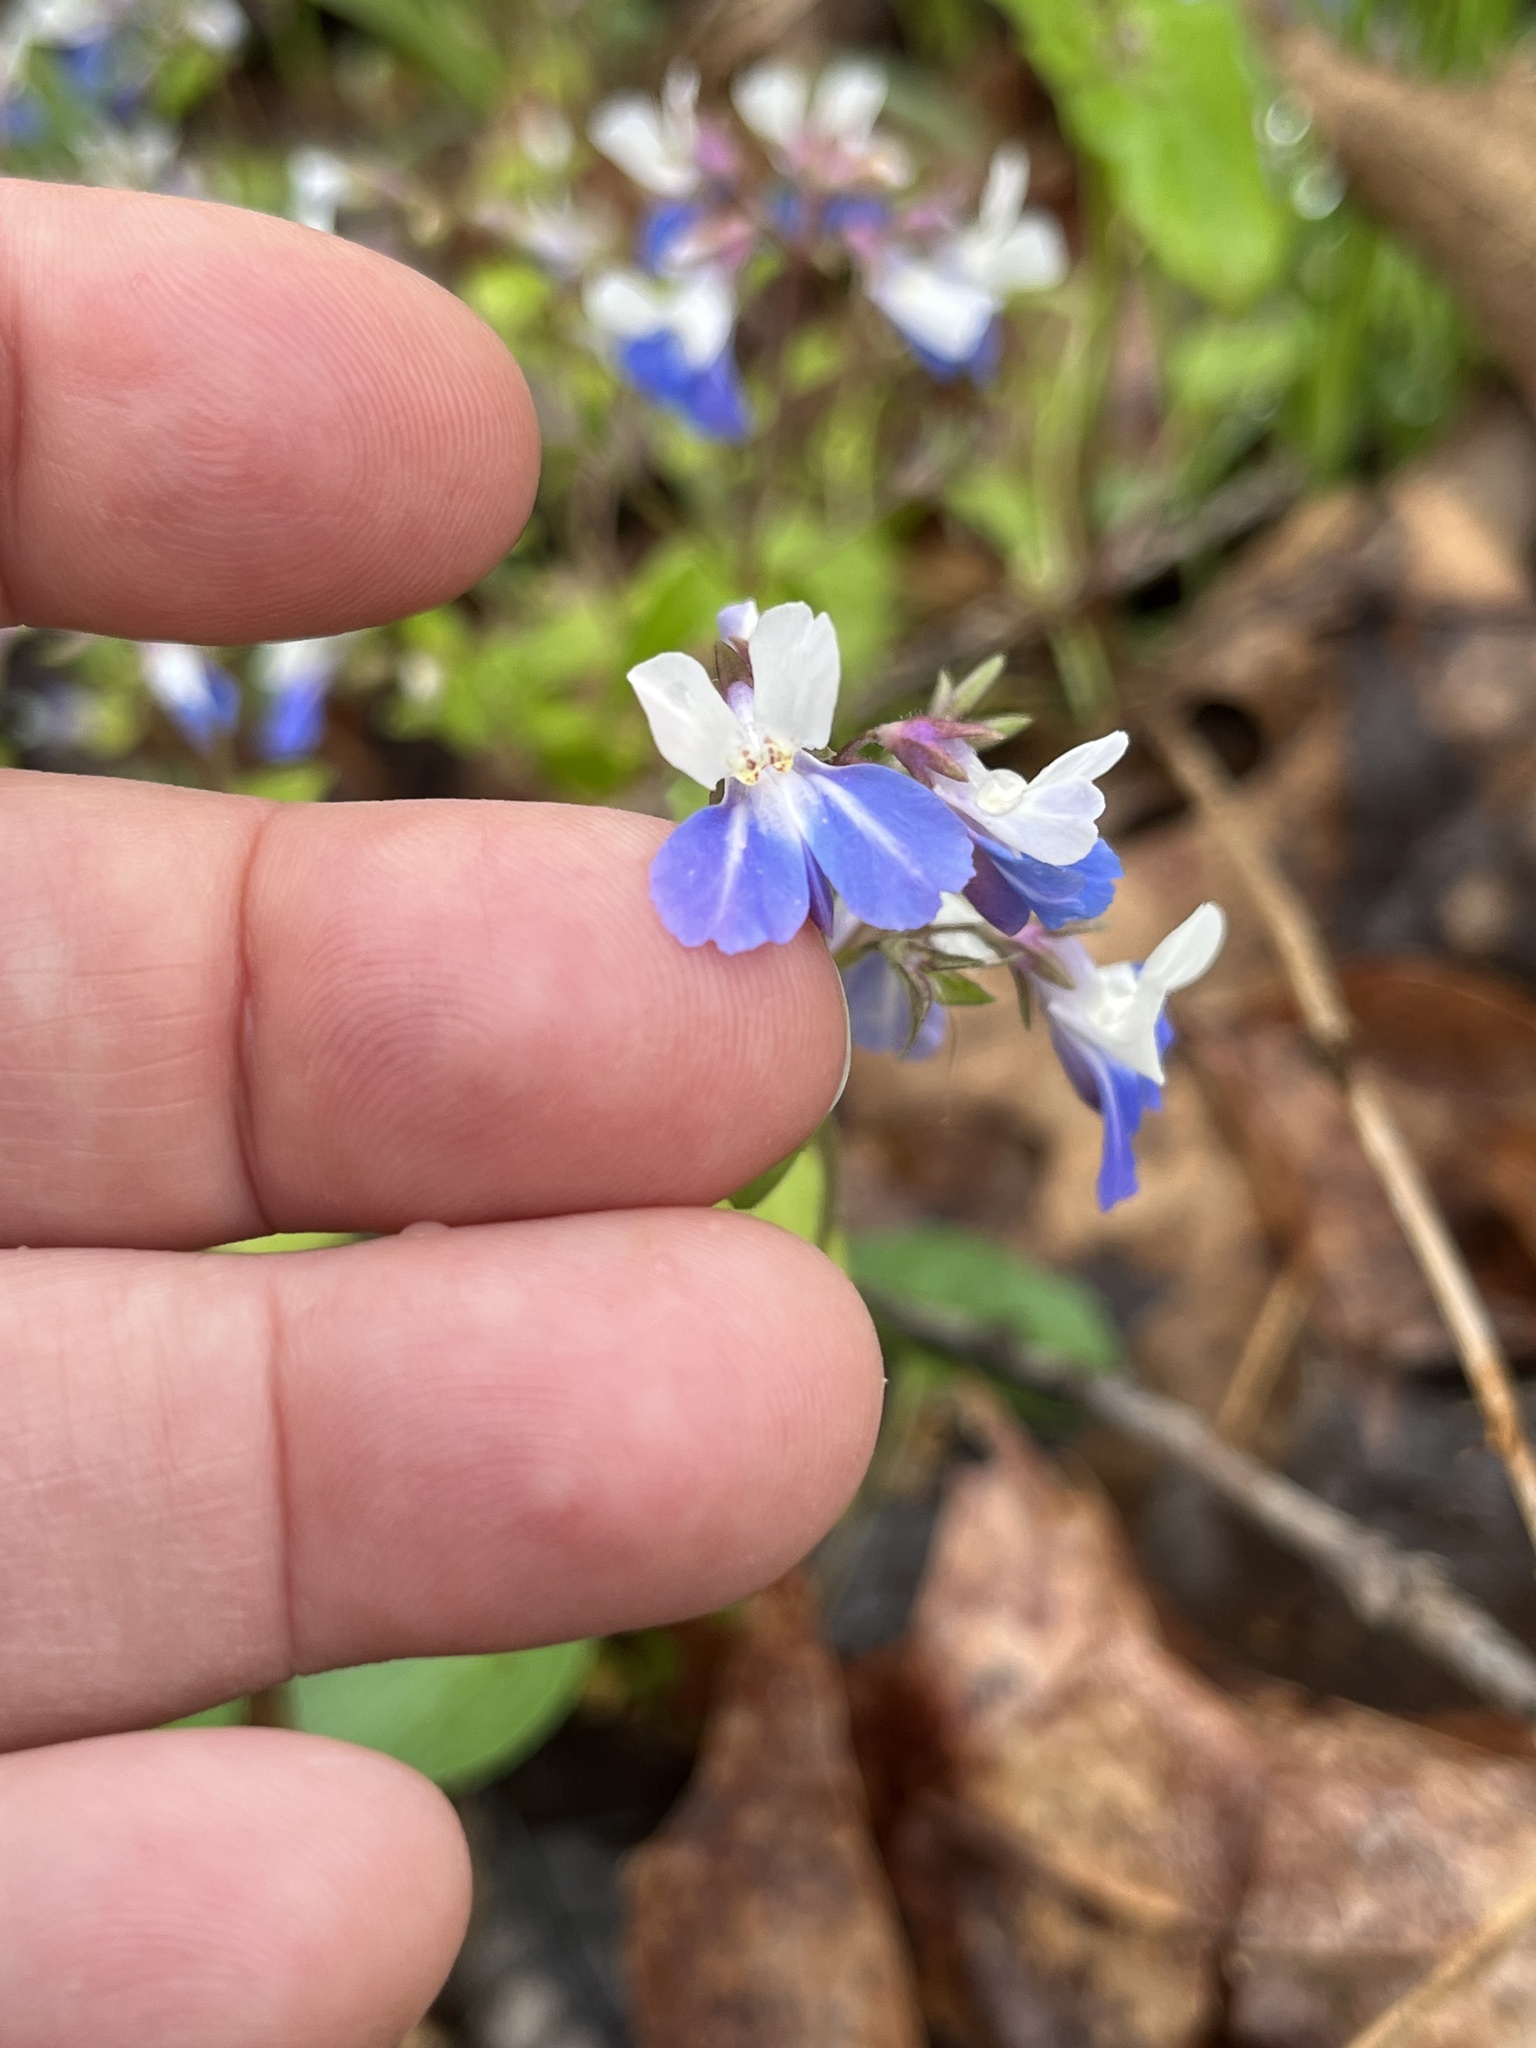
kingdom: Plantae
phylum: Tracheophyta
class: Magnoliopsida
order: Lamiales
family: Plantaginaceae
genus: Collinsia
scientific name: Collinsia verna
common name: Broad-leaved collinsia
